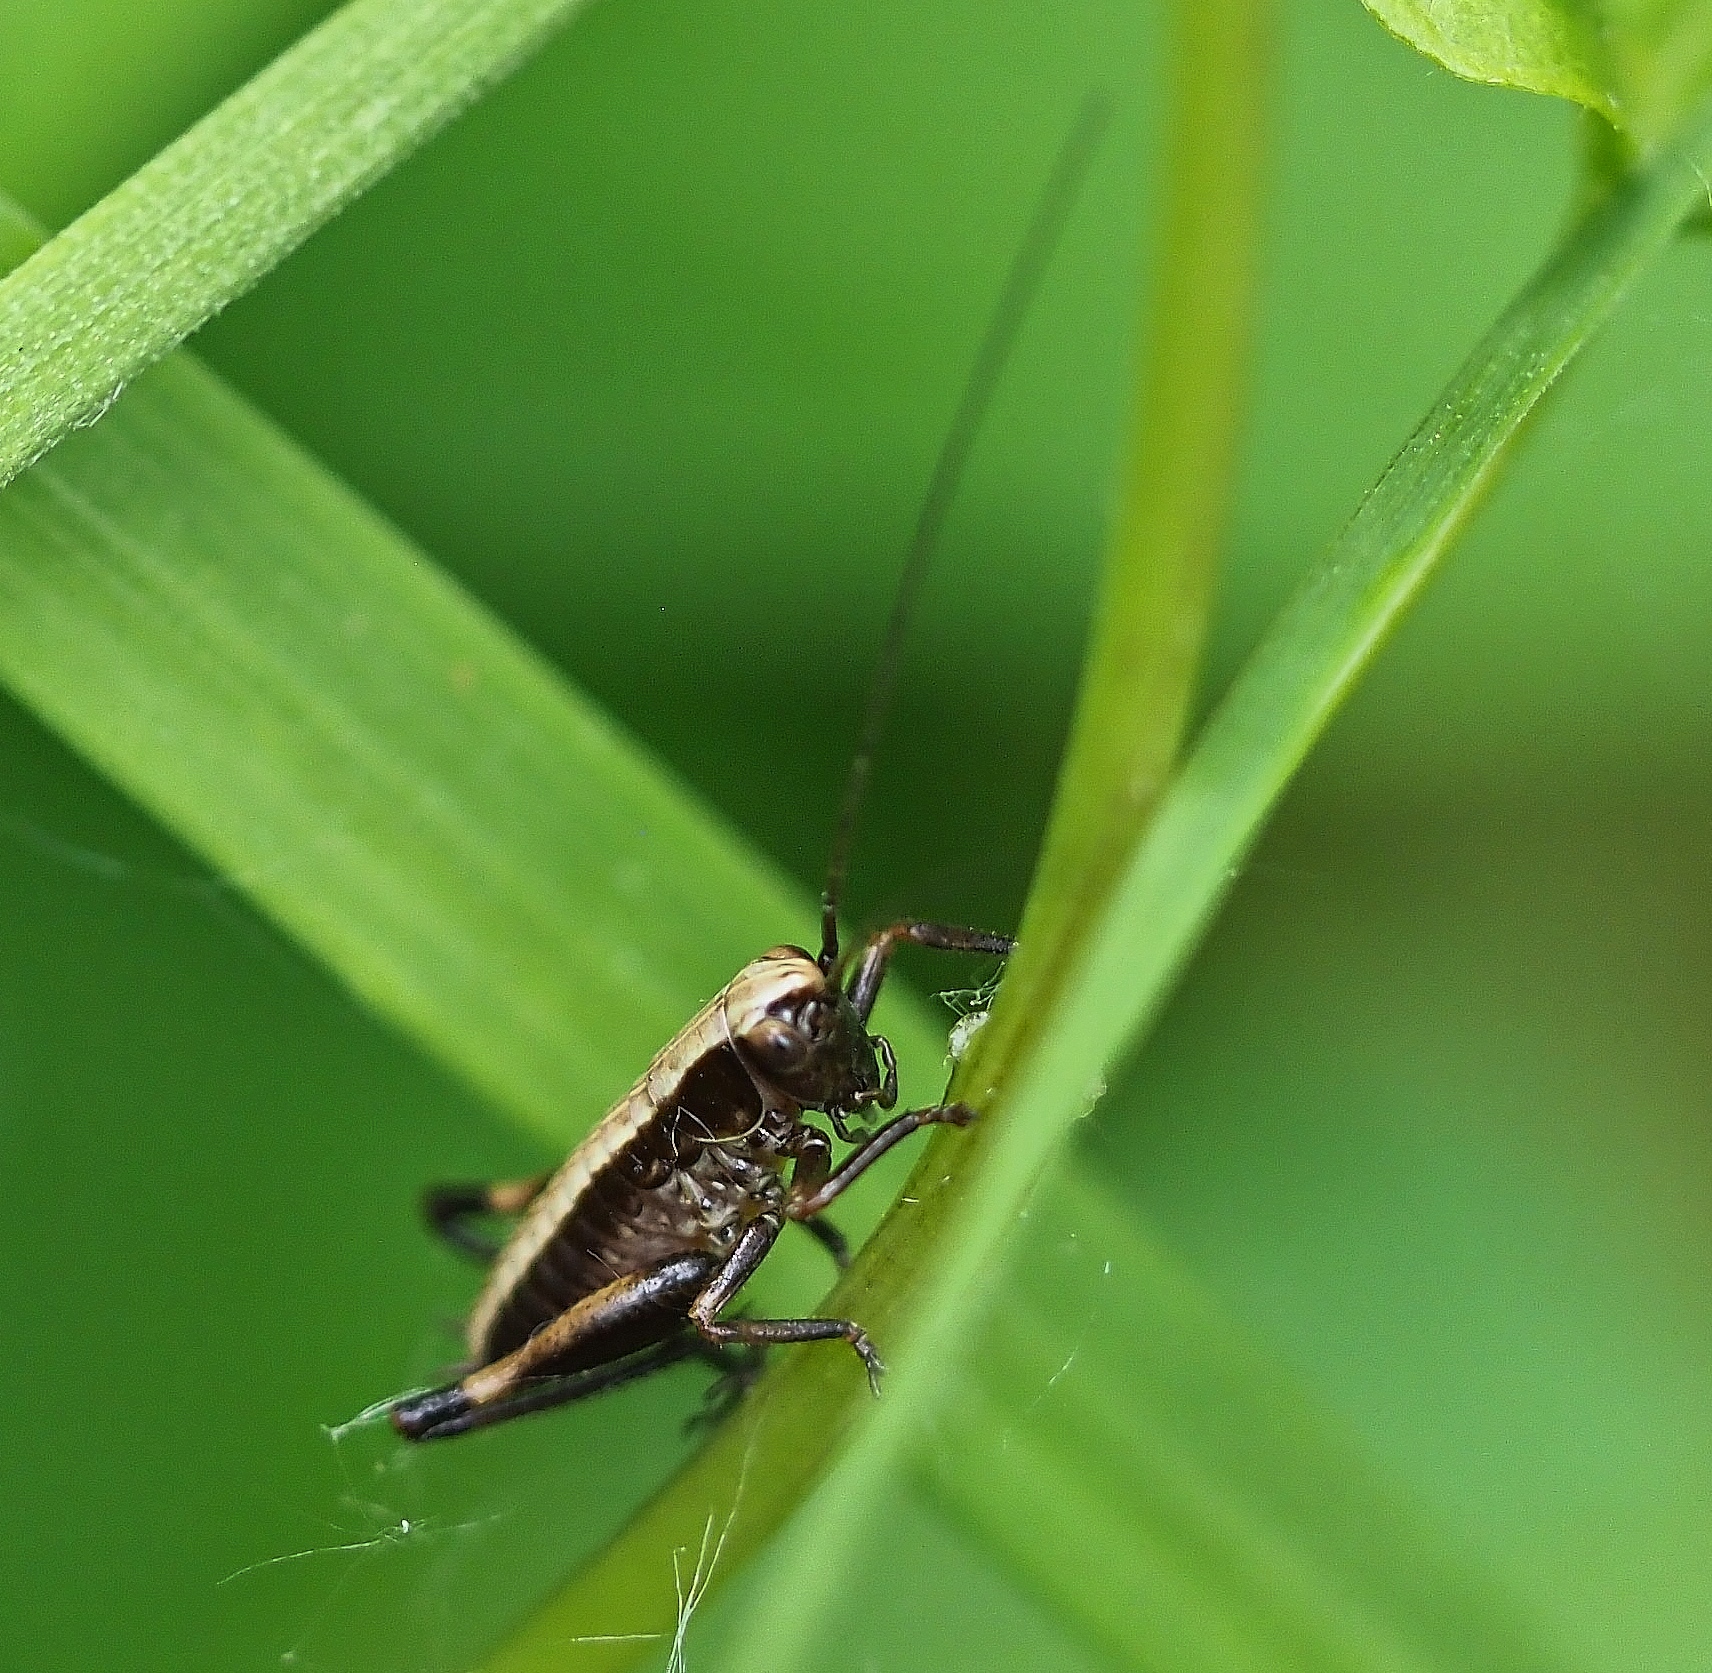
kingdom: Animalia
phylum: Arthropoda
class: Insecta
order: Orthoptera
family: Tettigoniidae
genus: Pholidoptera
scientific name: Pholidoptera griseoaptera
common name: Dark bush-cricket
